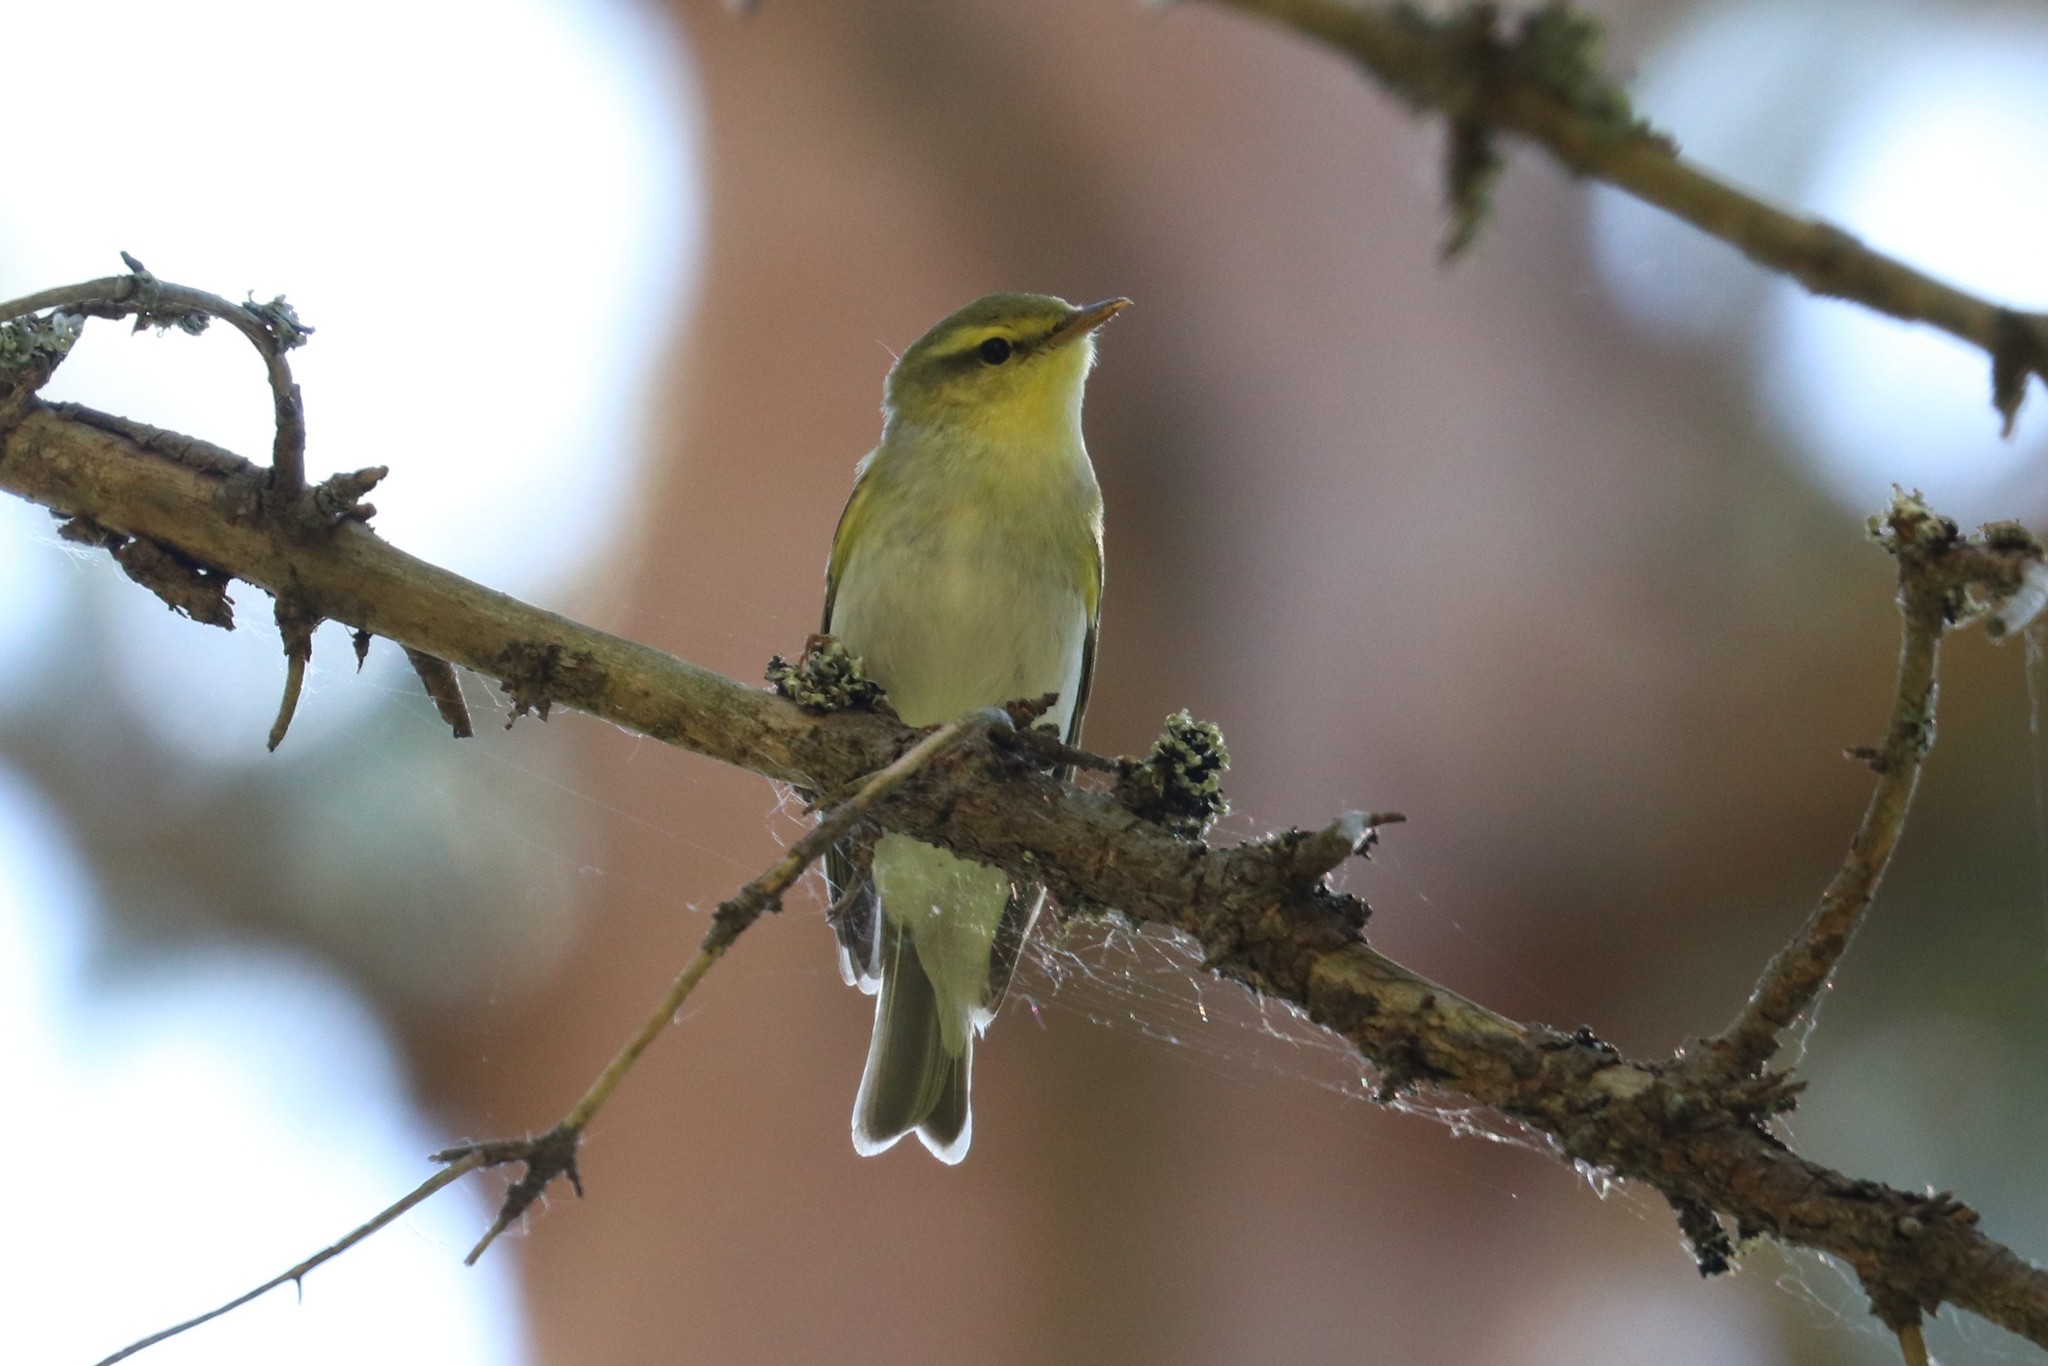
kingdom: Animalia
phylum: Chordata
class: Aves
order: Passeriformes
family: Phylloscopidae
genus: Phylloscopus
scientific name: Phylloscopus sibillatrix
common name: Wood warbler
